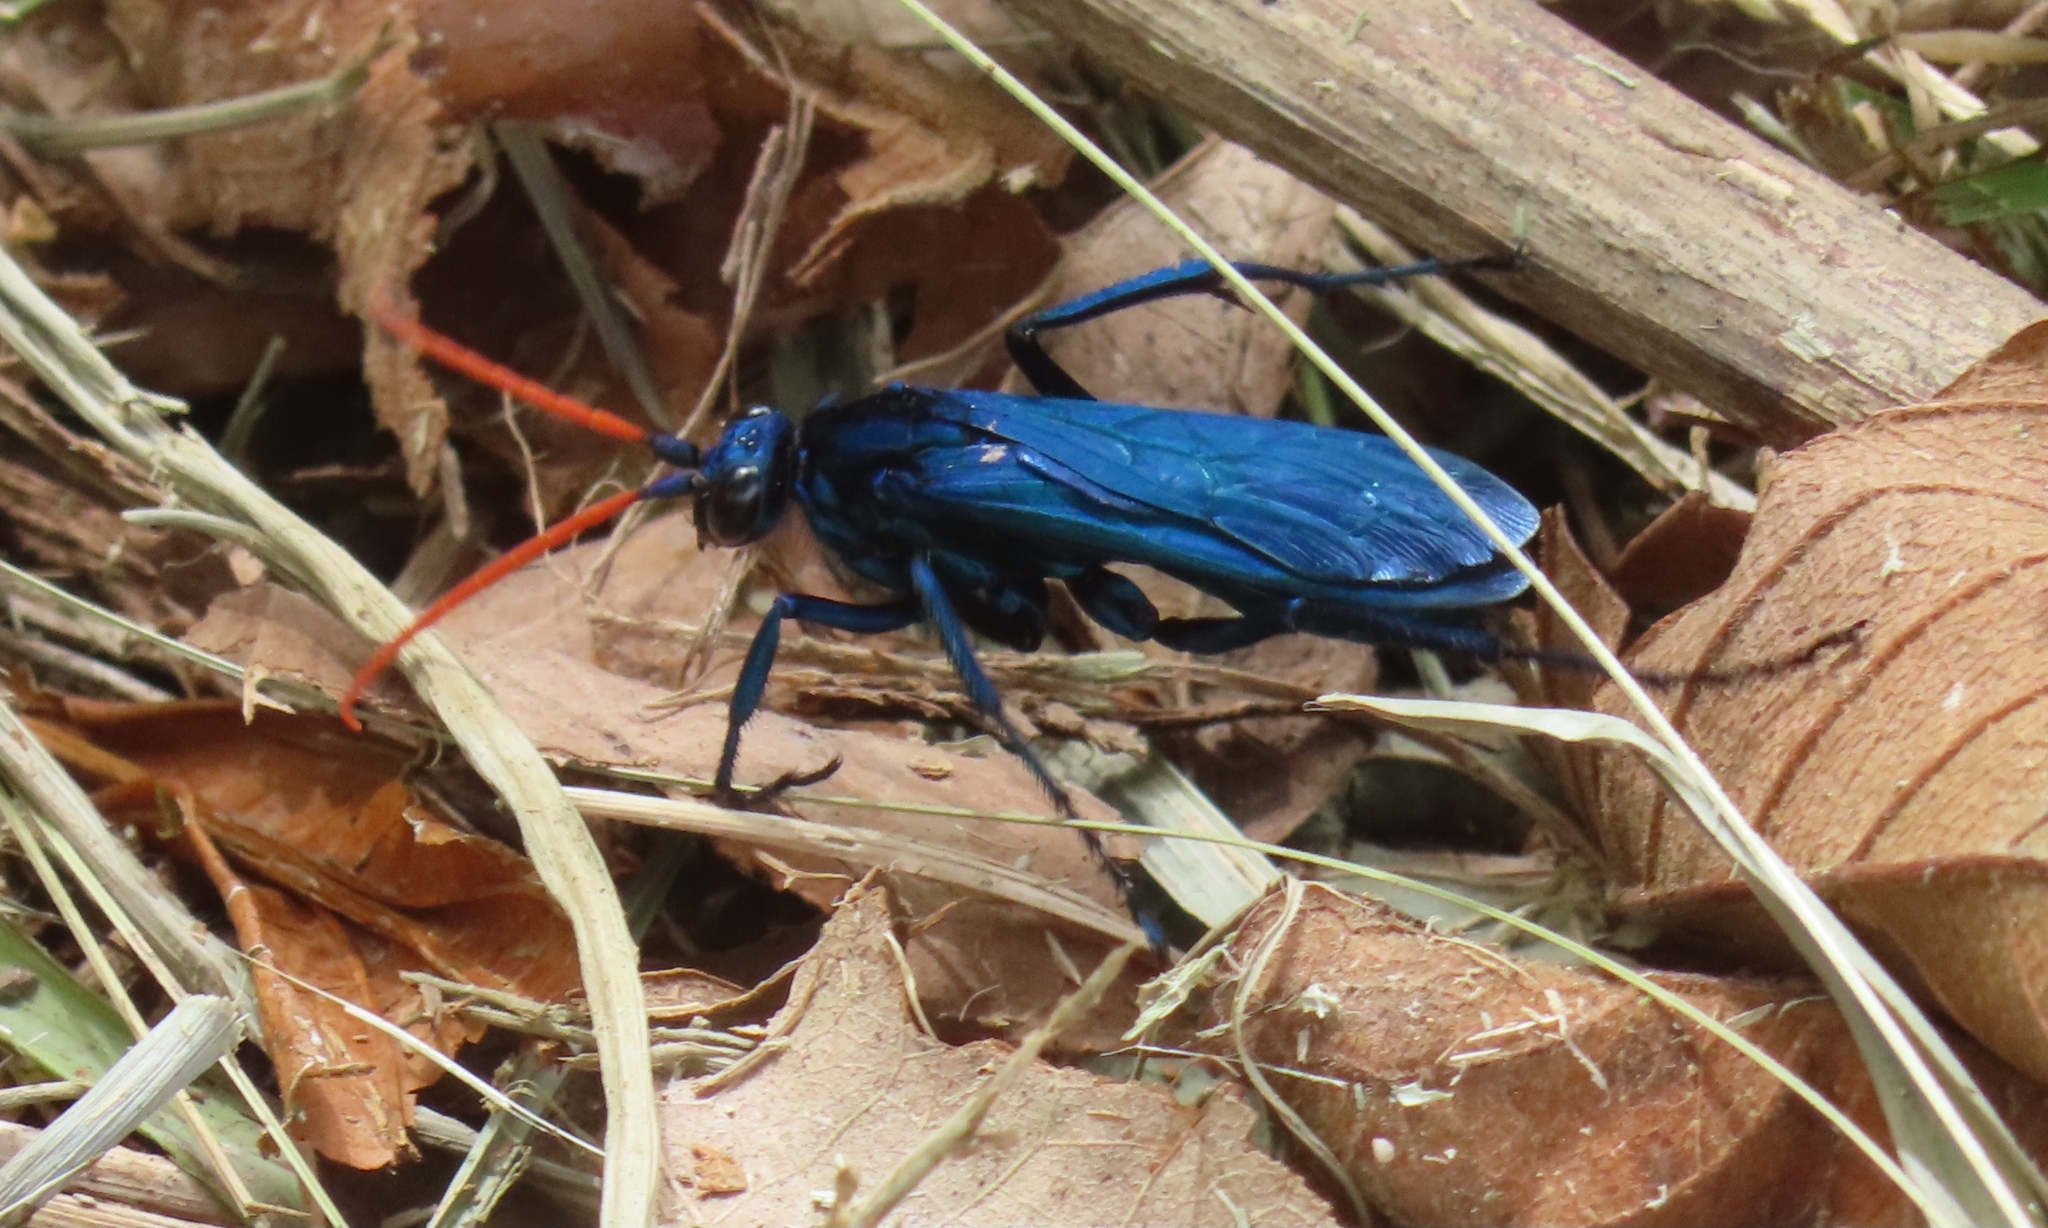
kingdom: Animalia
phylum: Arthropoda
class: Insecta
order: Hymenoptera
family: Pompilidae
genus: Pepsis
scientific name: Pepsis ruficornis
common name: Orange-horned tarantula hawk
